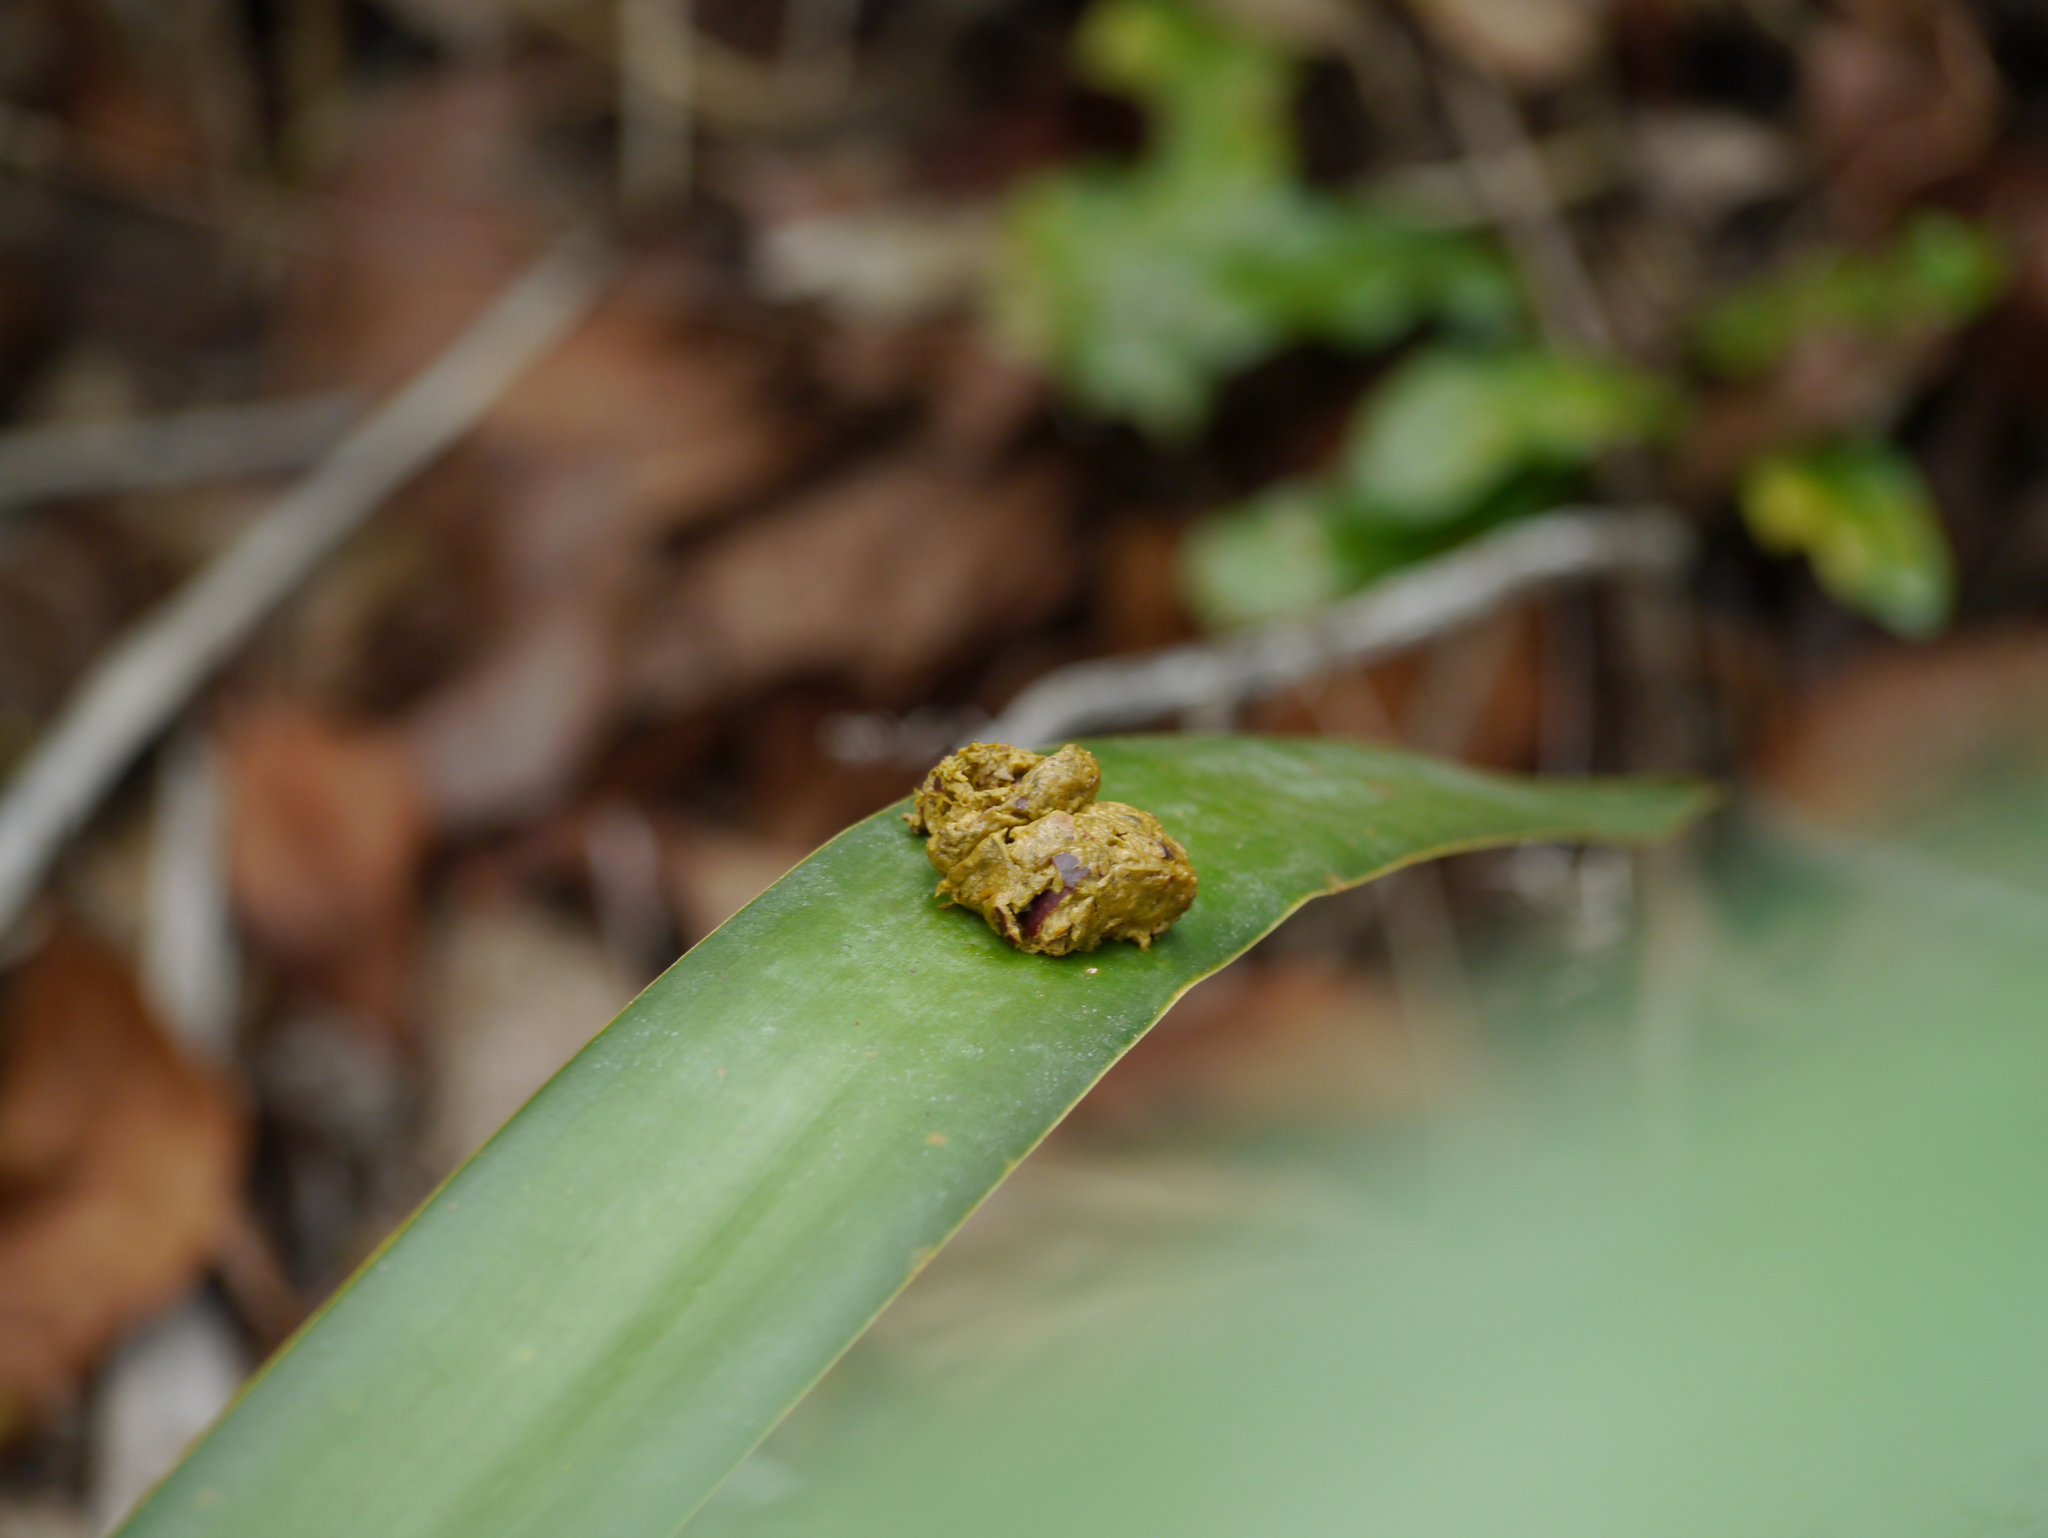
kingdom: Animalia
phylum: Chordata
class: Mammalia
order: Primates
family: Atelidae
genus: Ateles
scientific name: Ateles geoffroyi
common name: Black-handed spider monkey
